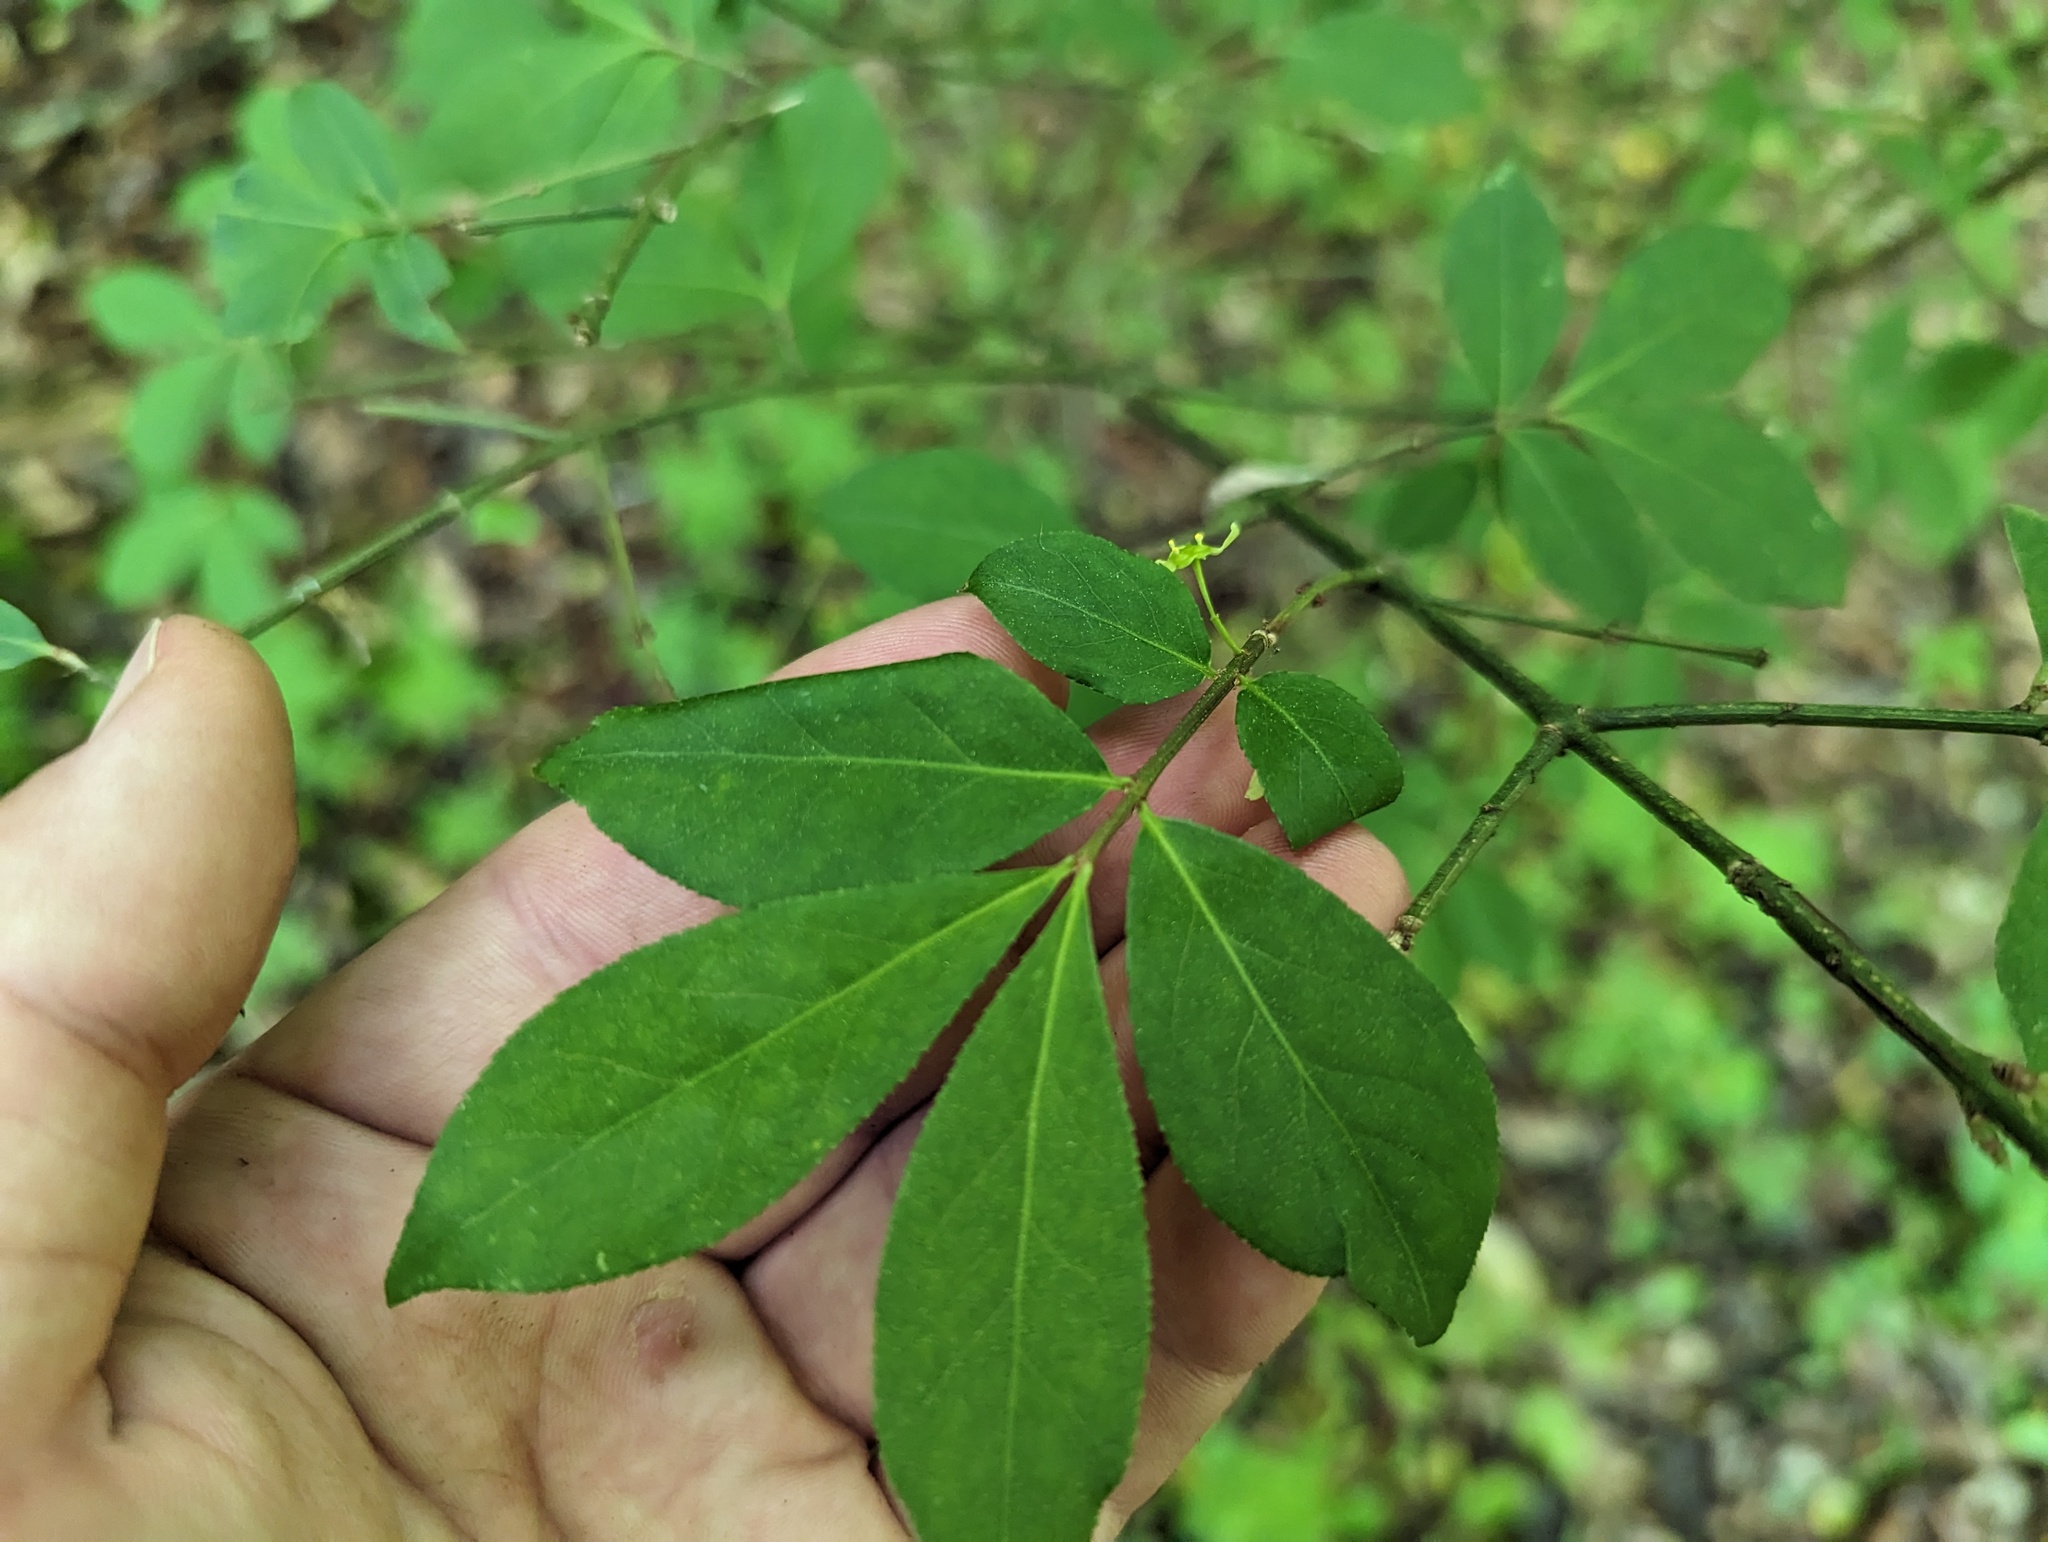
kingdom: Plantae
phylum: Tracheophyta
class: Magnoliopsida
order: Celastrales
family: Celastraceae
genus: Euonymus
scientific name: Euonymus alatus
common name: Winged euonymus
